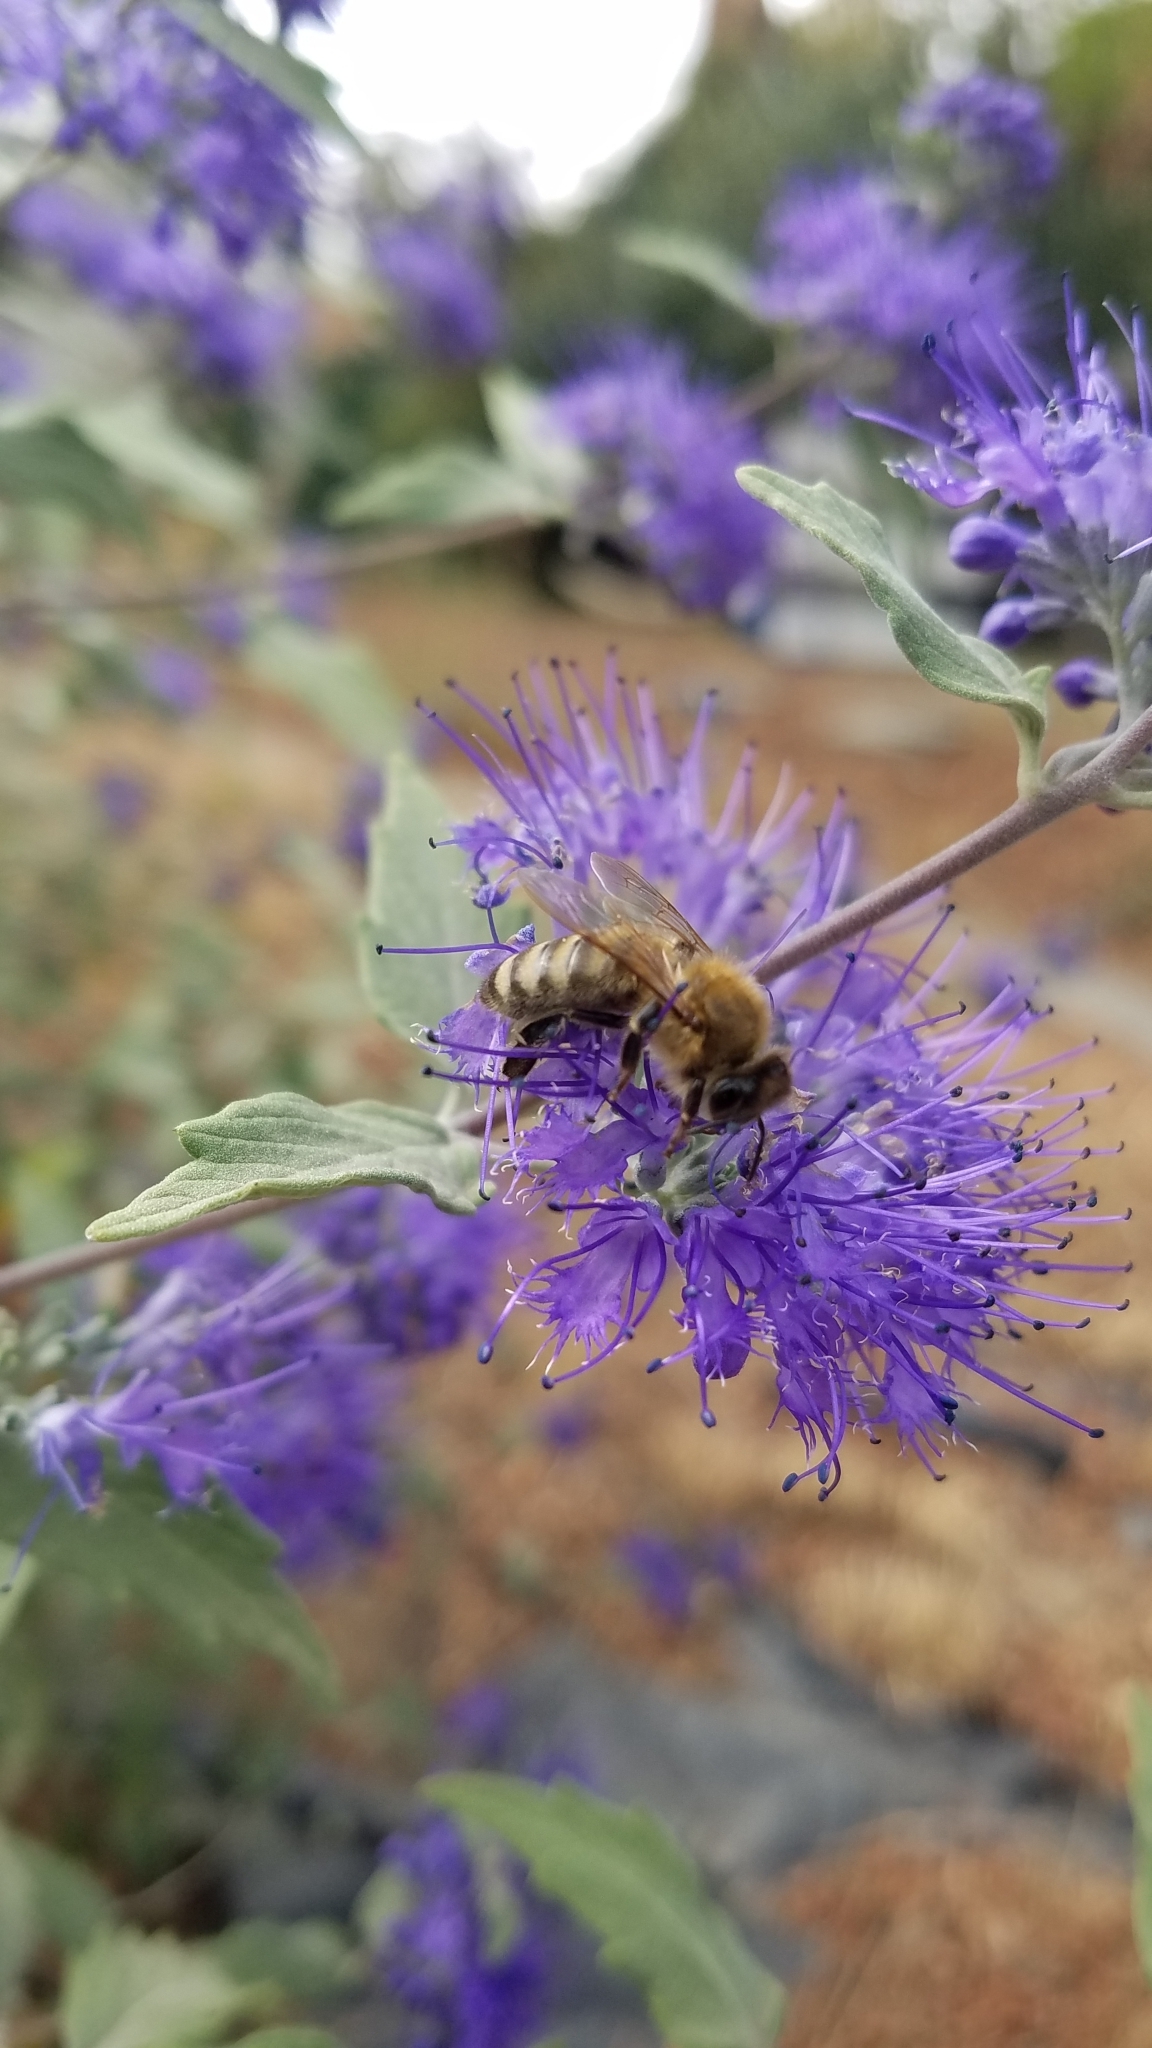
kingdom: Animalia
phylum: Arthropoda
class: Insecta
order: Hymenoptera
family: Apidae
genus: Apis
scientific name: Apis mellifera
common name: Honey bee
